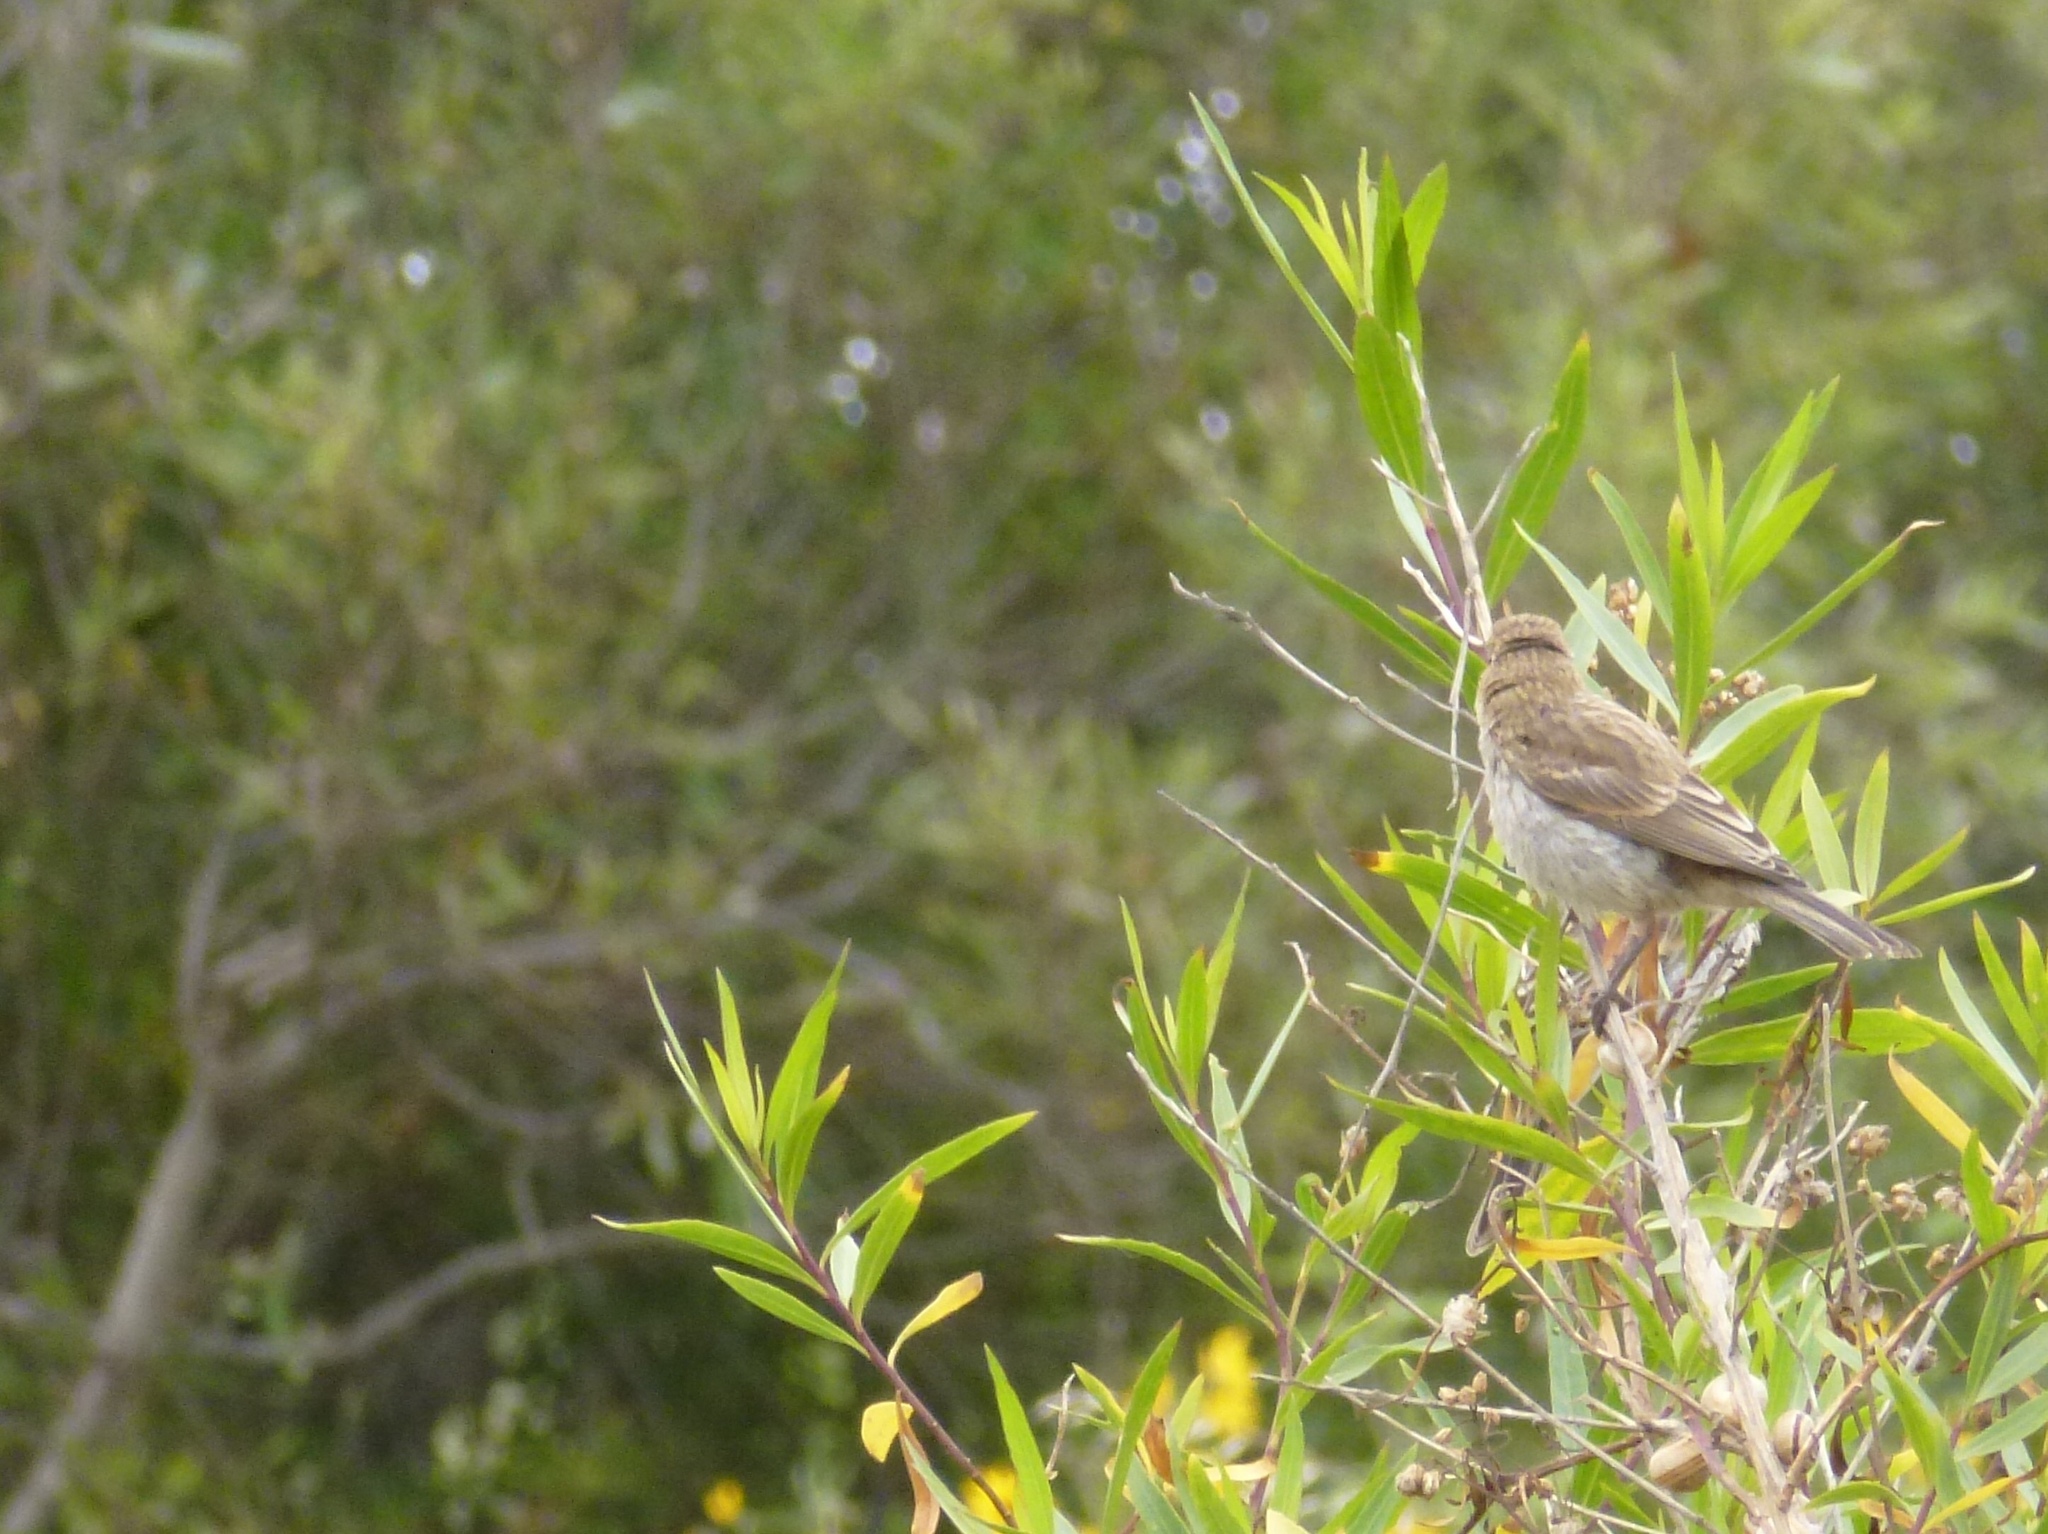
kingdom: Animalia
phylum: Chordata
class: Aves
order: Passeriformes
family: Fringillidae
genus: Haemorhous
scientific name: Haemorhous mexicanus
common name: House finch
